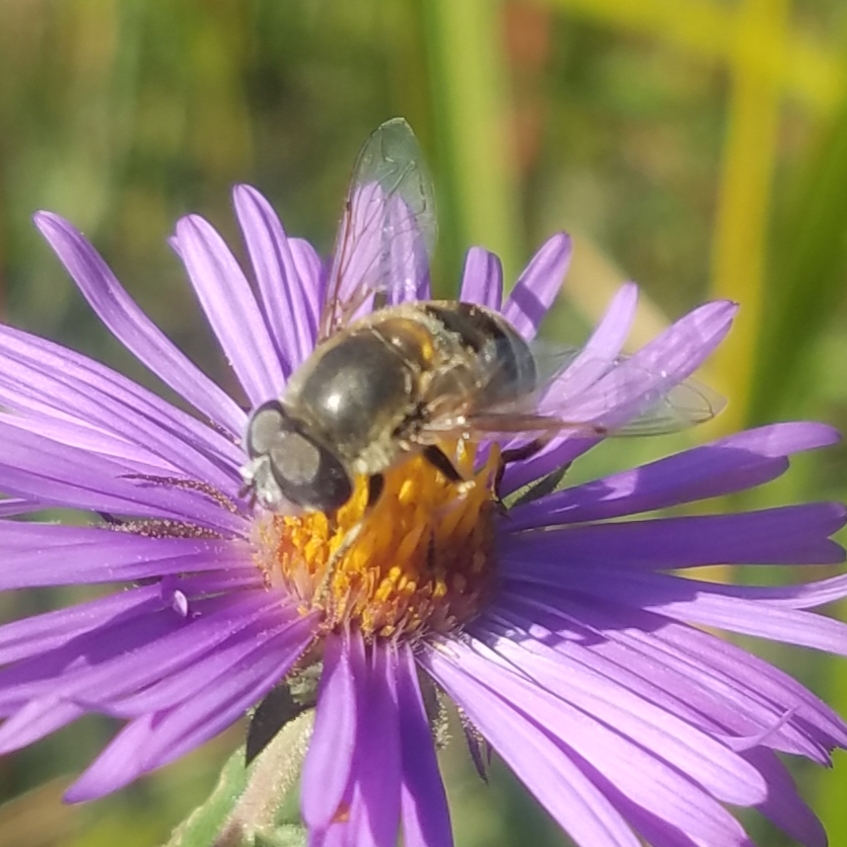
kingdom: Animalia
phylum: Arthropoda
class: Insecta
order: Diptera
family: Syrphidae
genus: Eristalis
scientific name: Eristalis stipator
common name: Yellow-shouldered drone fly
